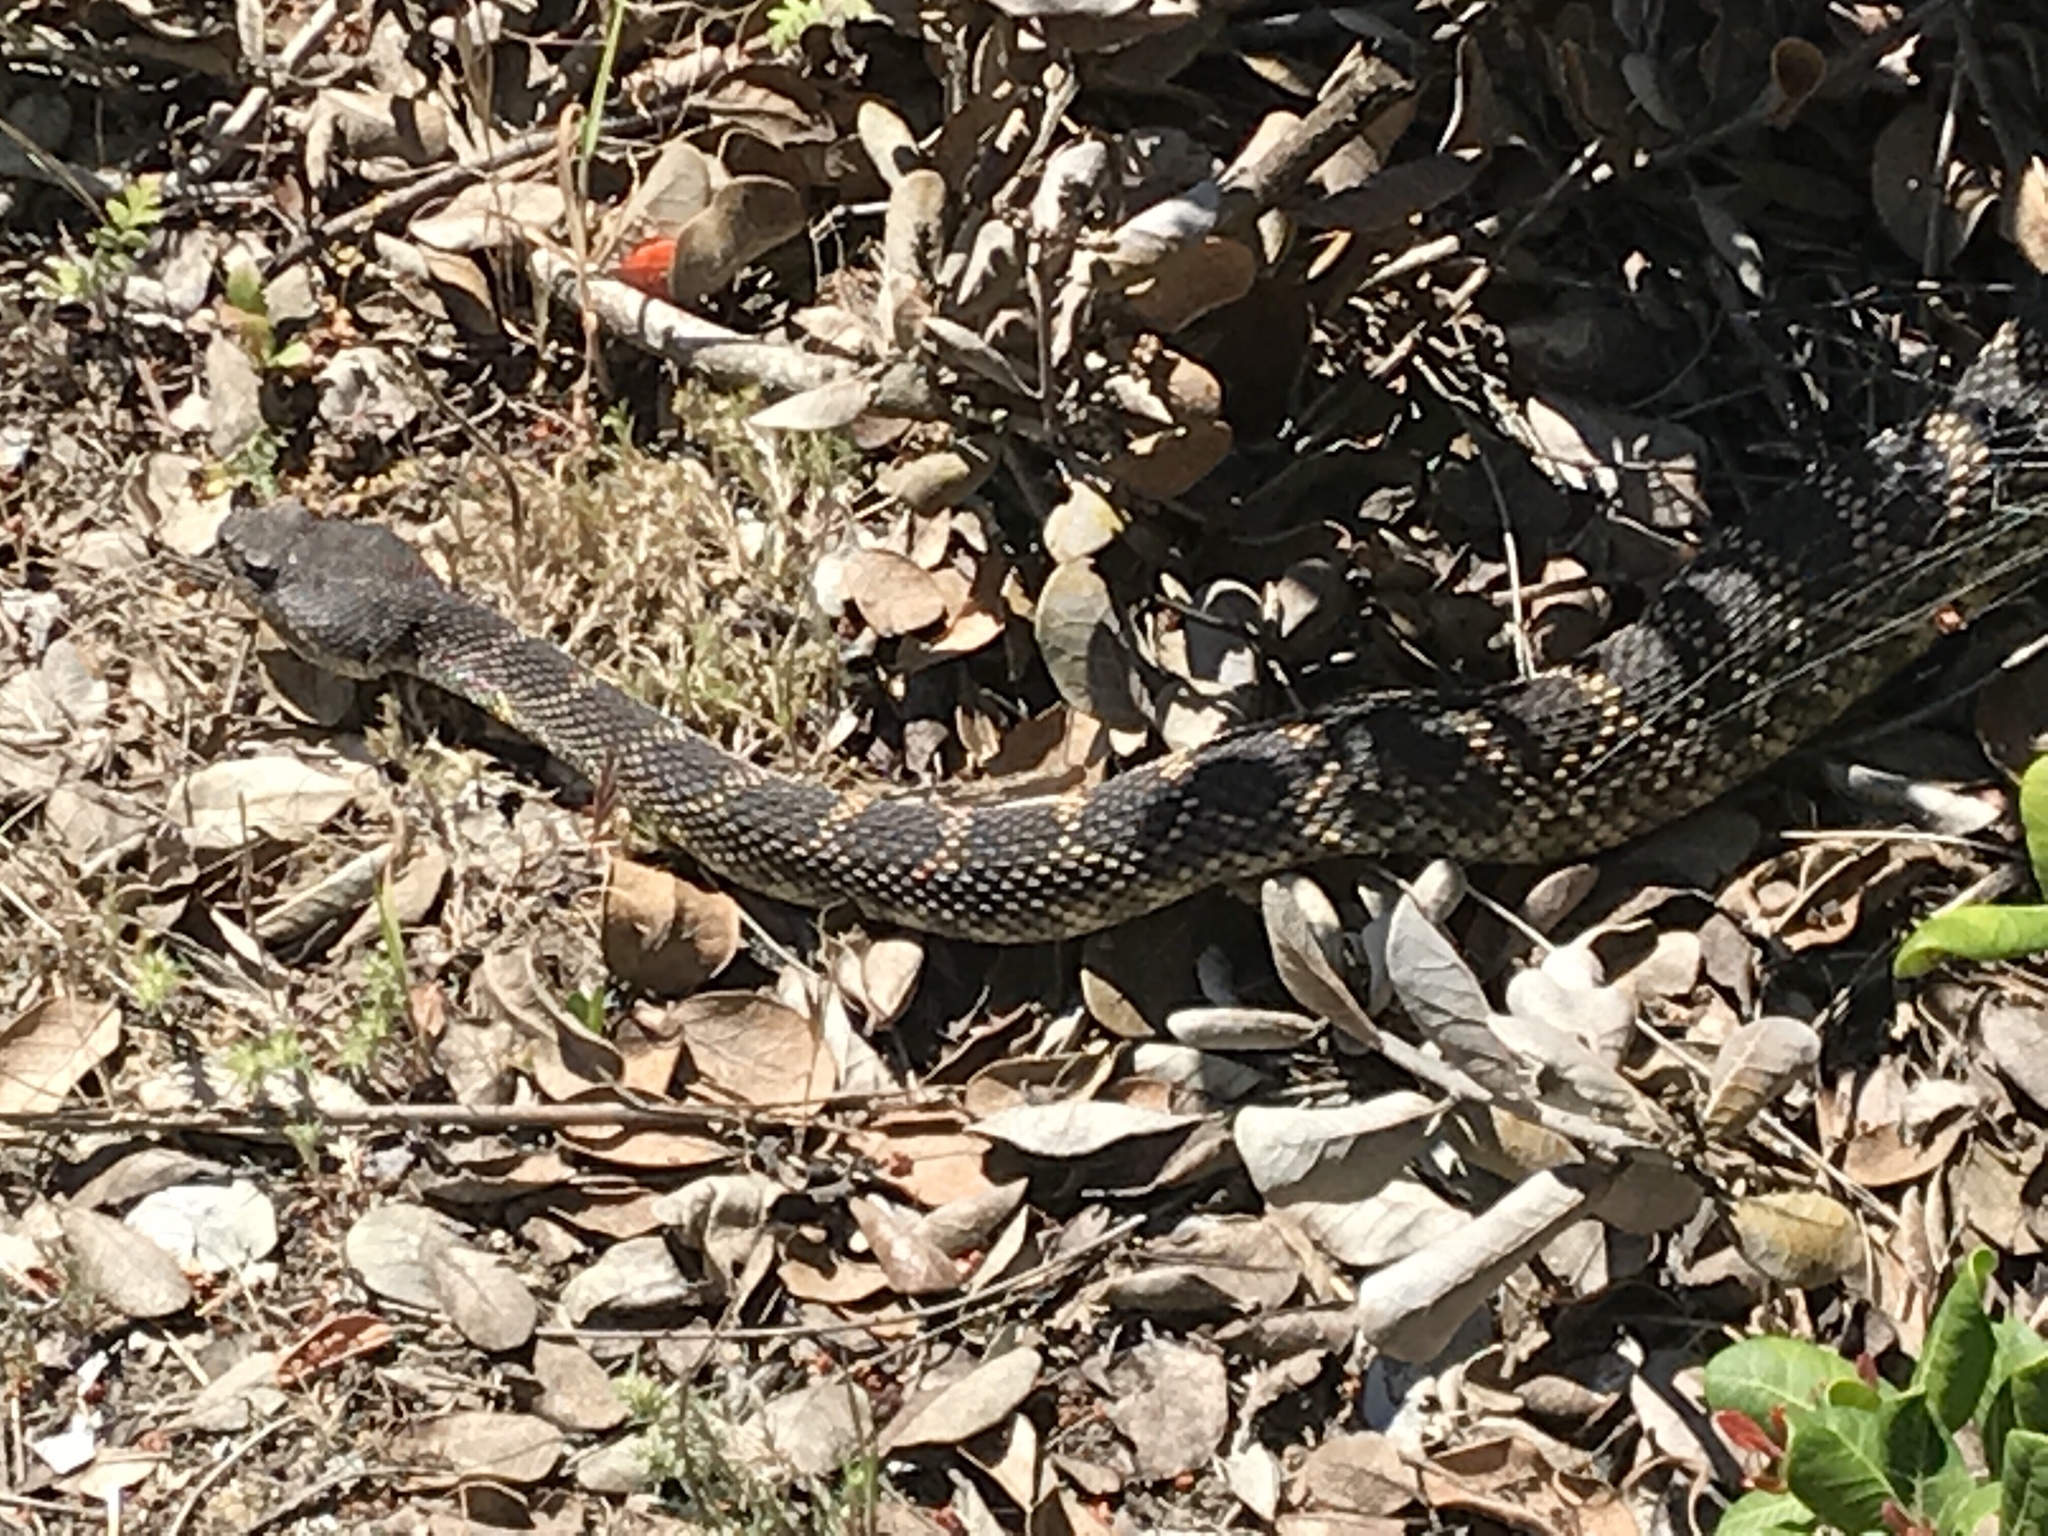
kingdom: Animalia
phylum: Chordata
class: Squamata
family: Viperidae
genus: Crotalus
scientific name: Crotalus oreganus
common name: Abyssus
